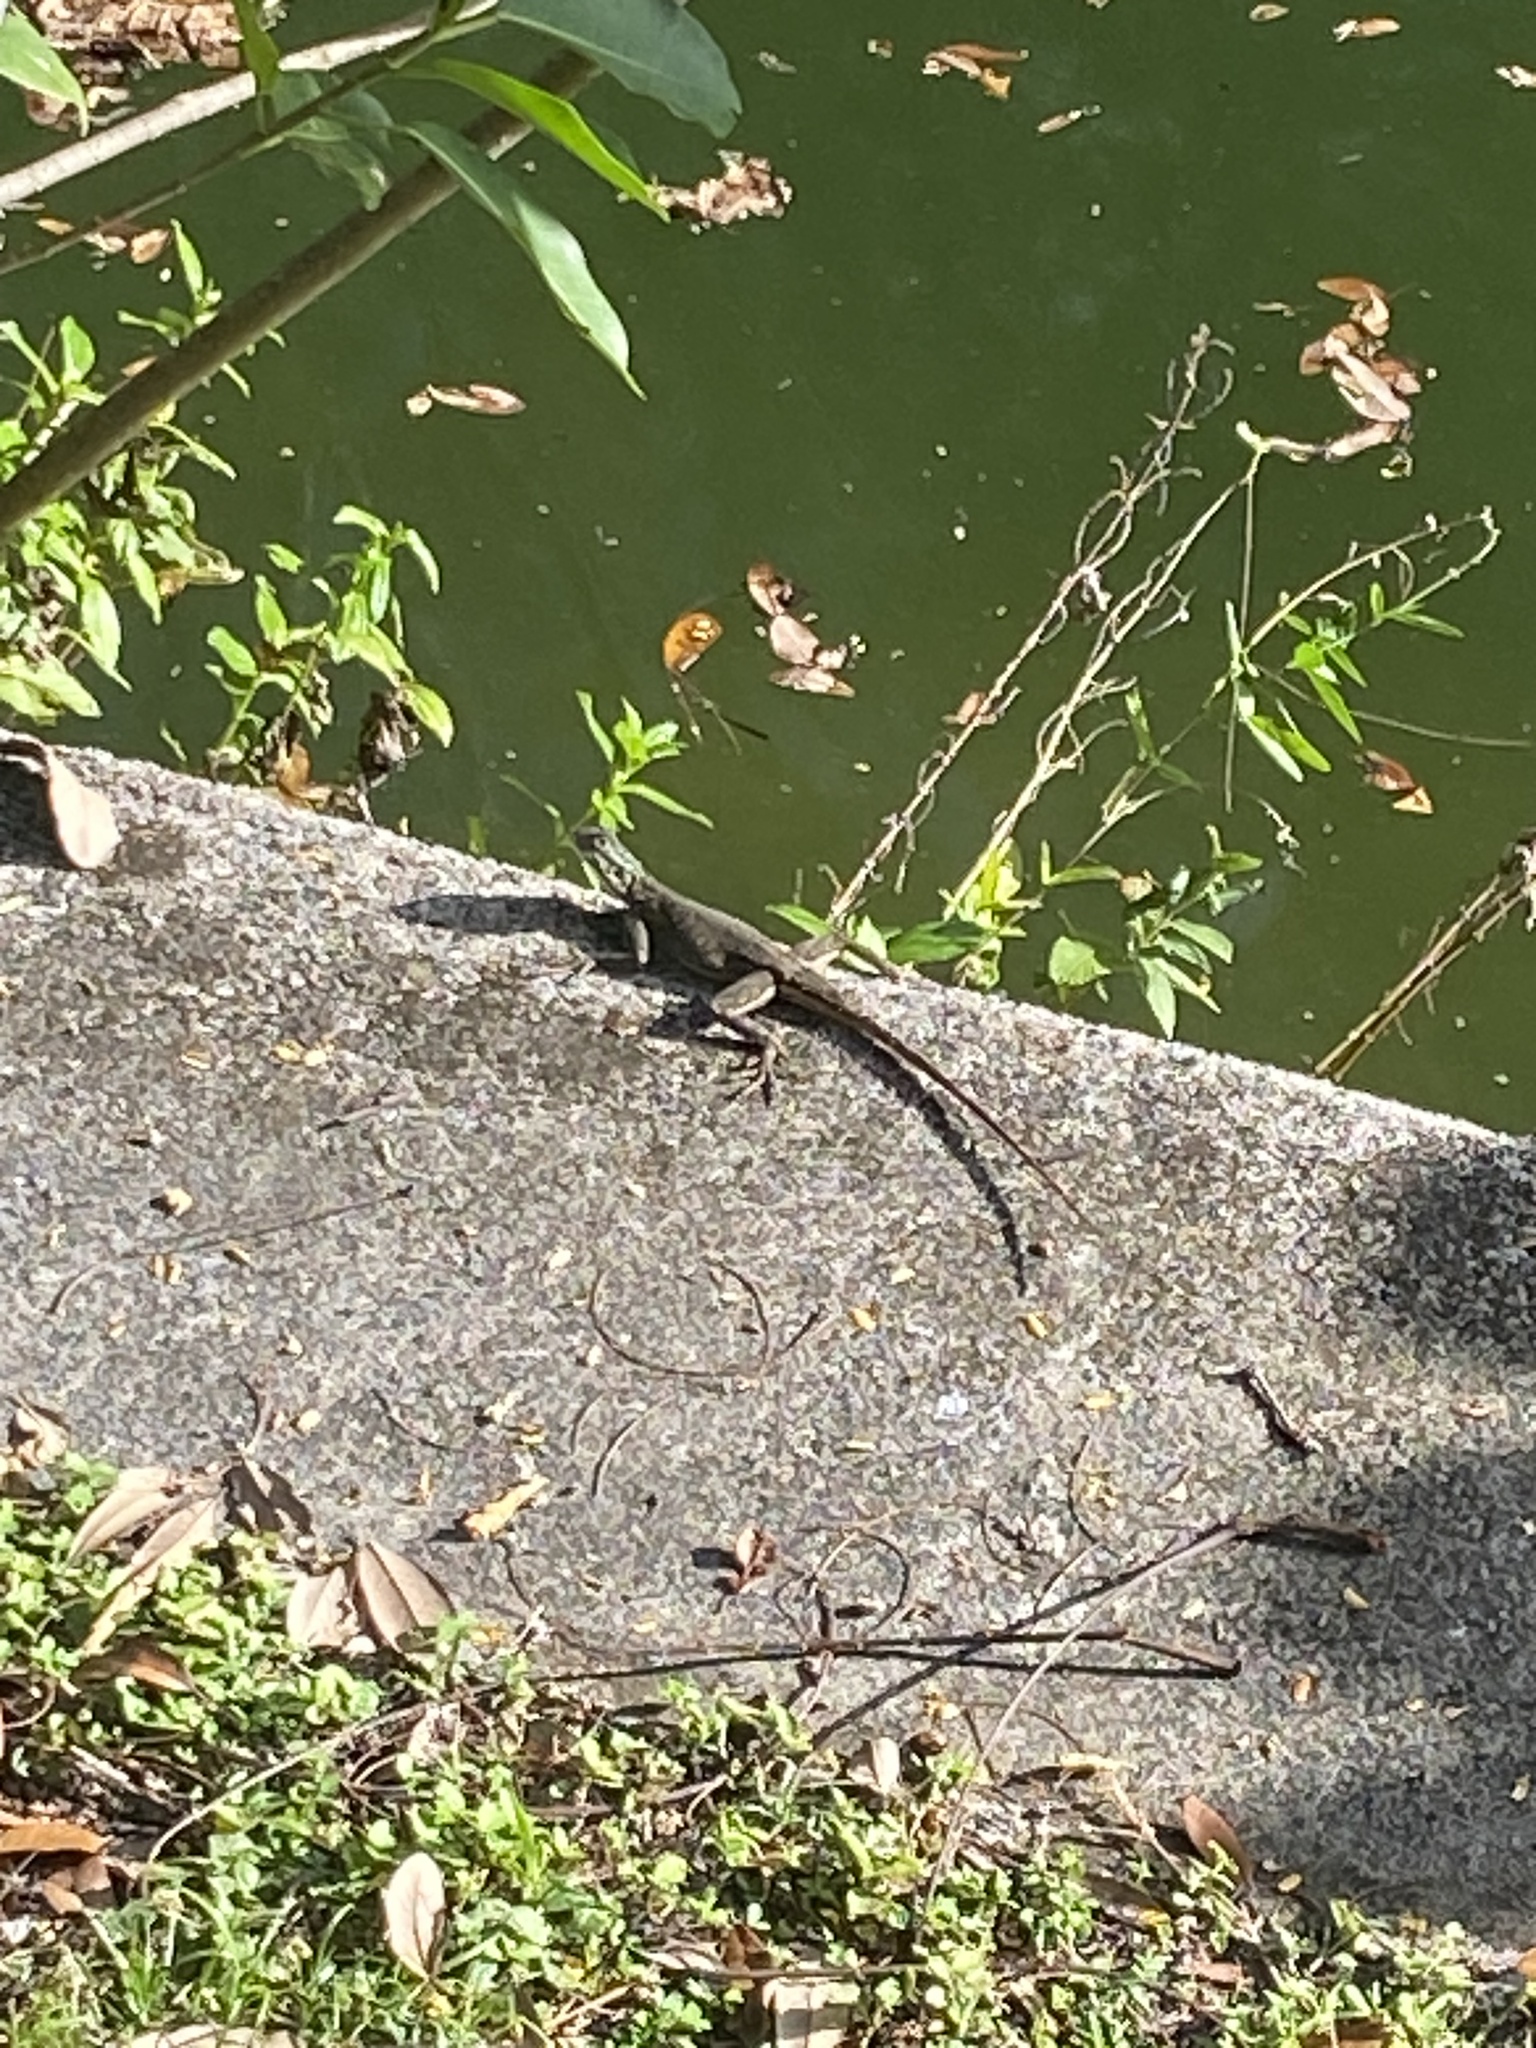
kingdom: Animalia
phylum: Chordata
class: Squamata
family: Agamidae
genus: Agama
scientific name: Agama picticauda
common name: Red-headed agama
